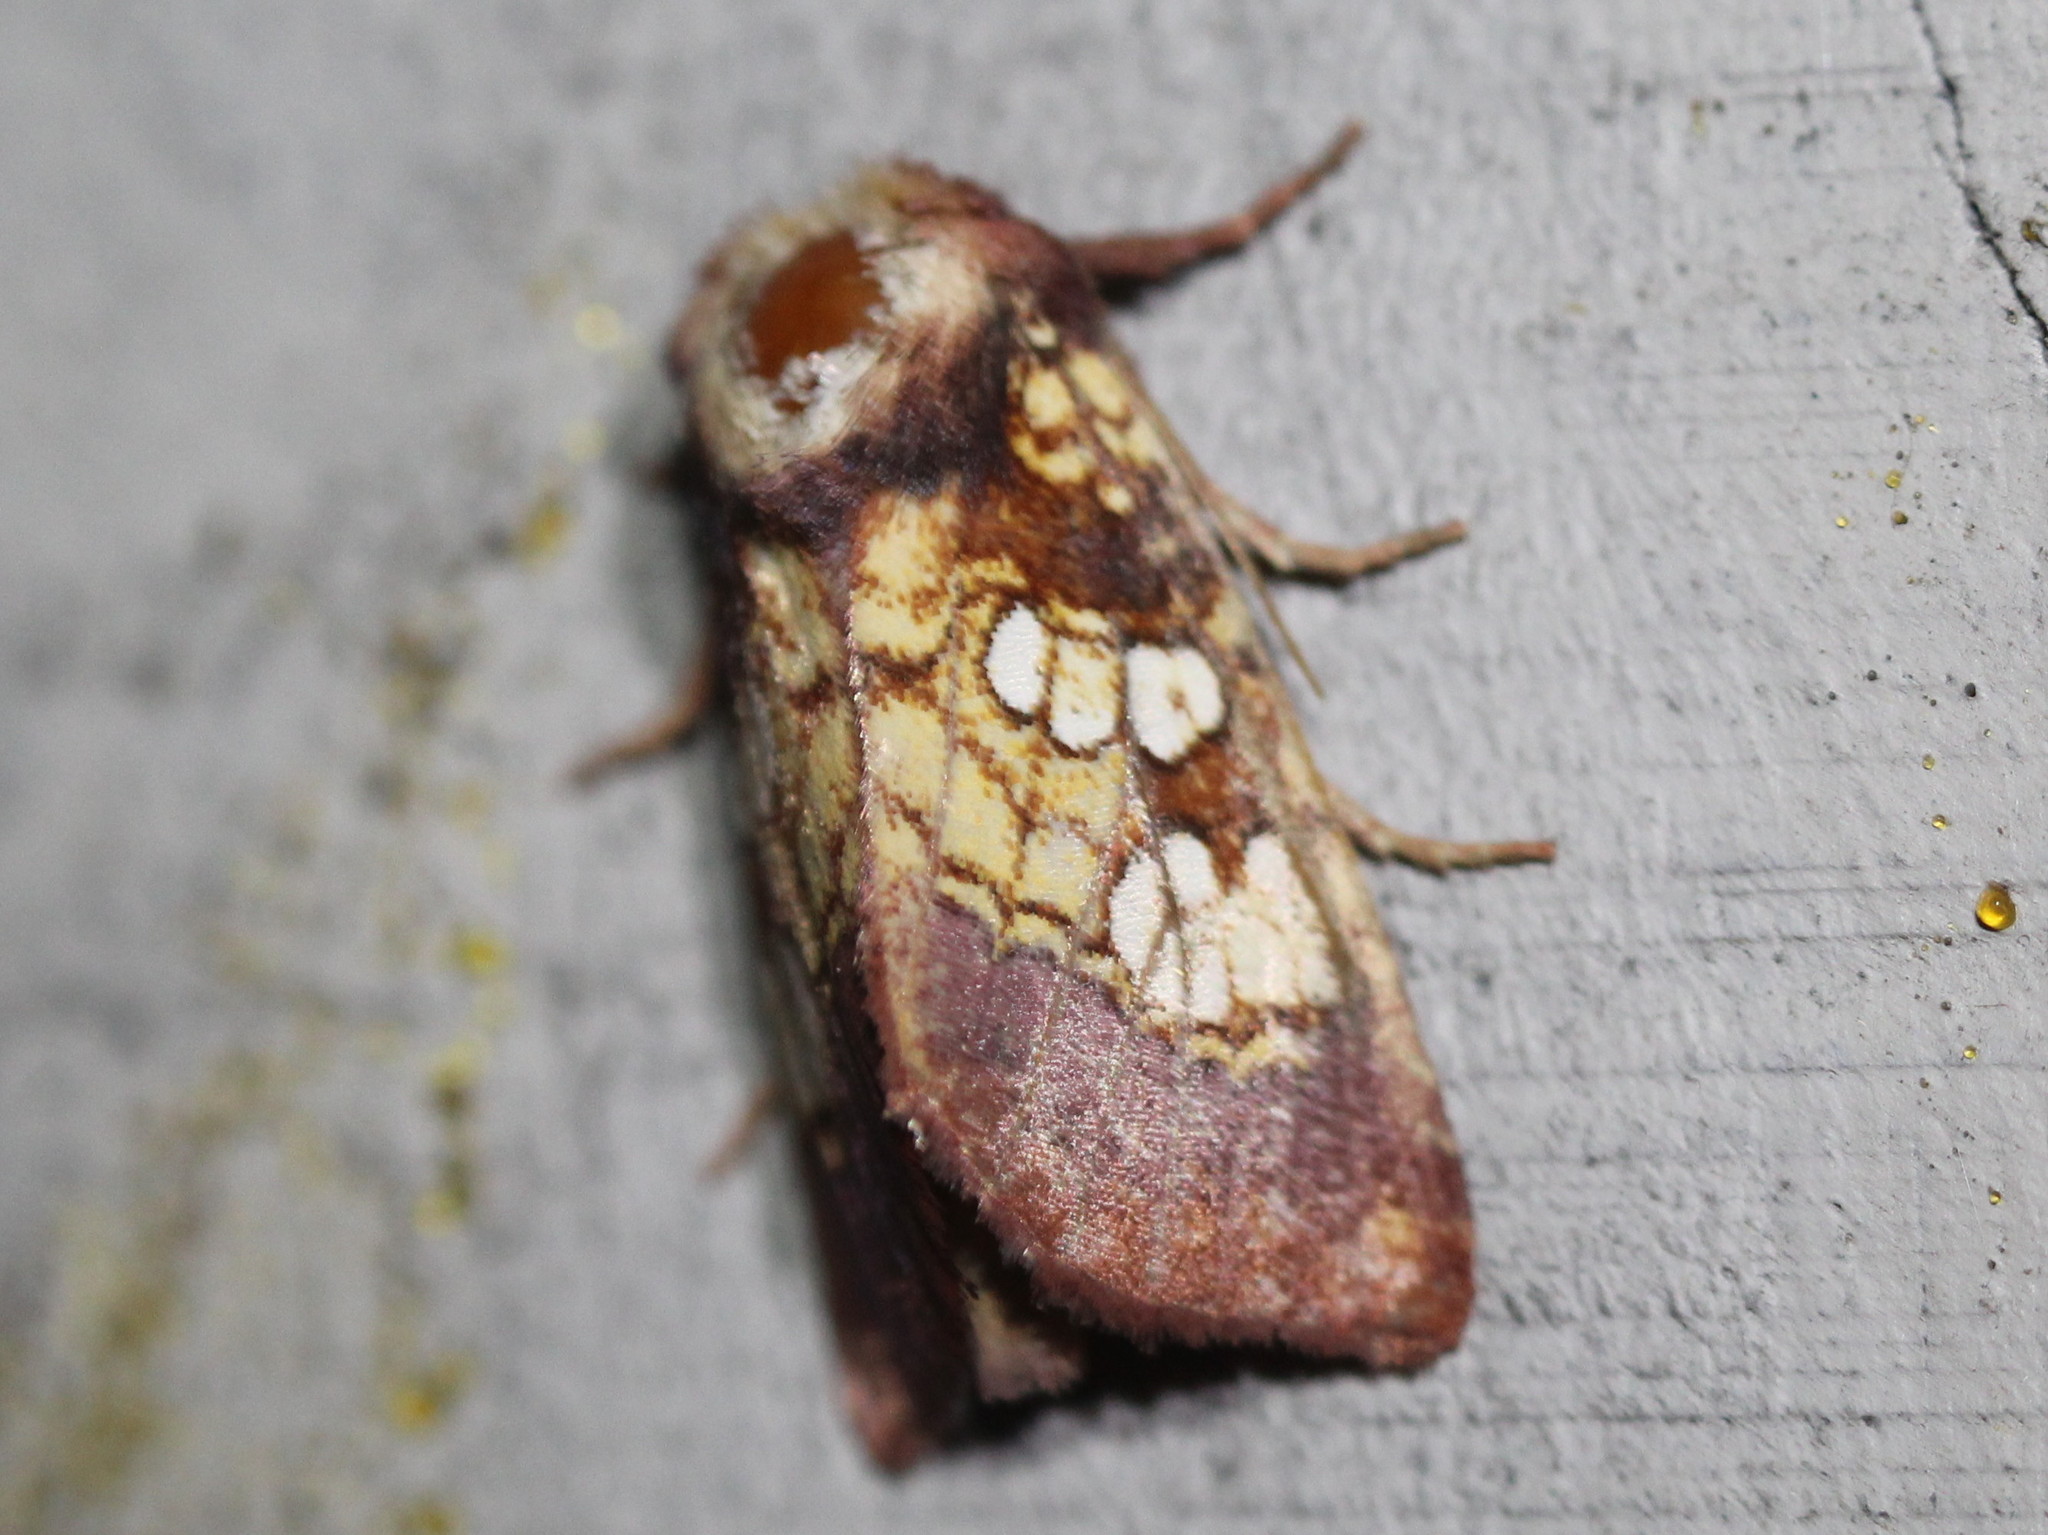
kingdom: Animalia
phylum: Arthropoda
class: Insecta
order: Lepidoptera
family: Noctuidae
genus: Papaipema
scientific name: Papaipema appassionata
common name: Pitcher plant borer moth
